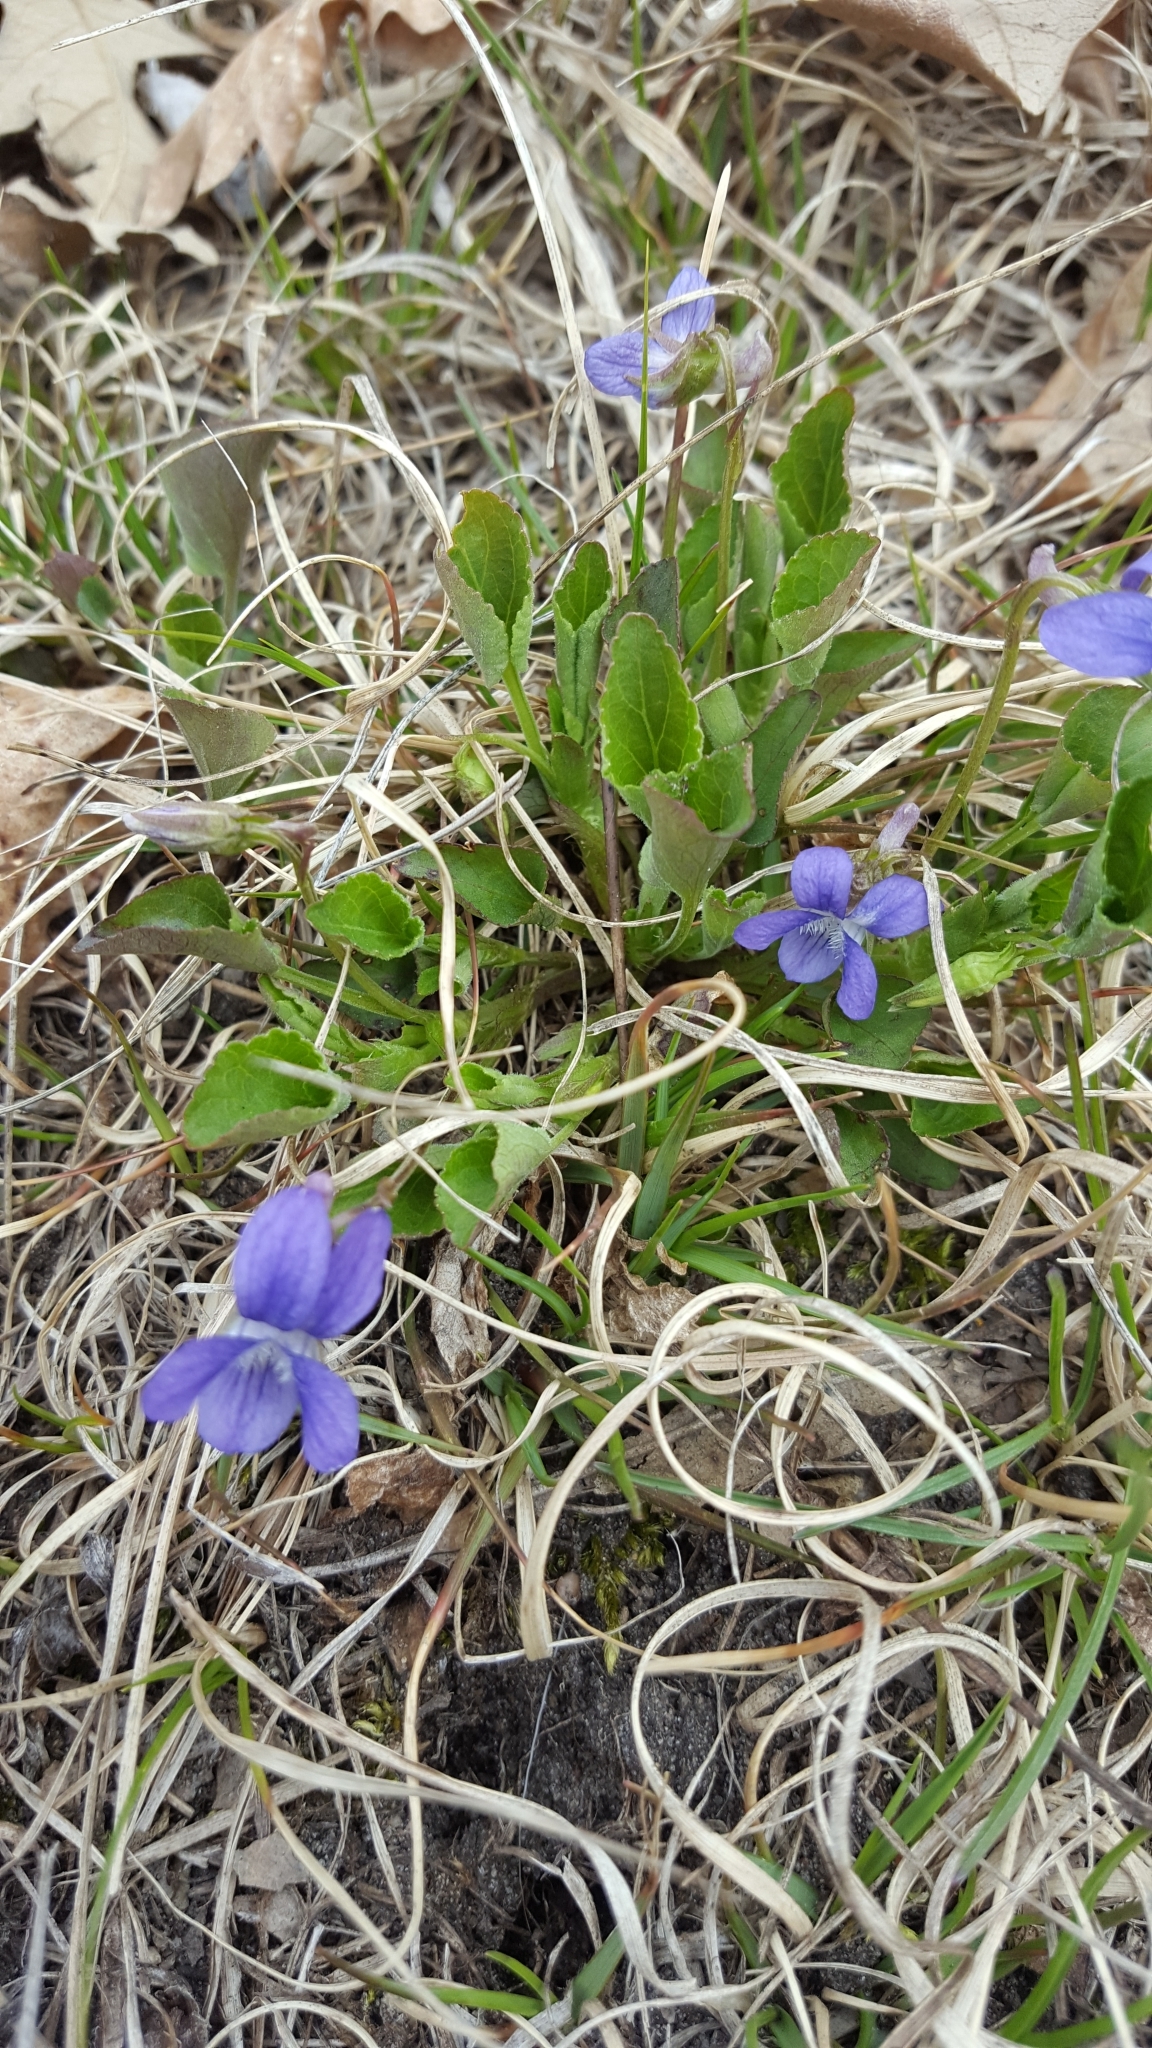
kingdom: Plantae
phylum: Tracheophyta
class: Magnoliopsida
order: Malpighiales
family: Violaceae
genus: Viola
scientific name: Viola adunca
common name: Sand violet
